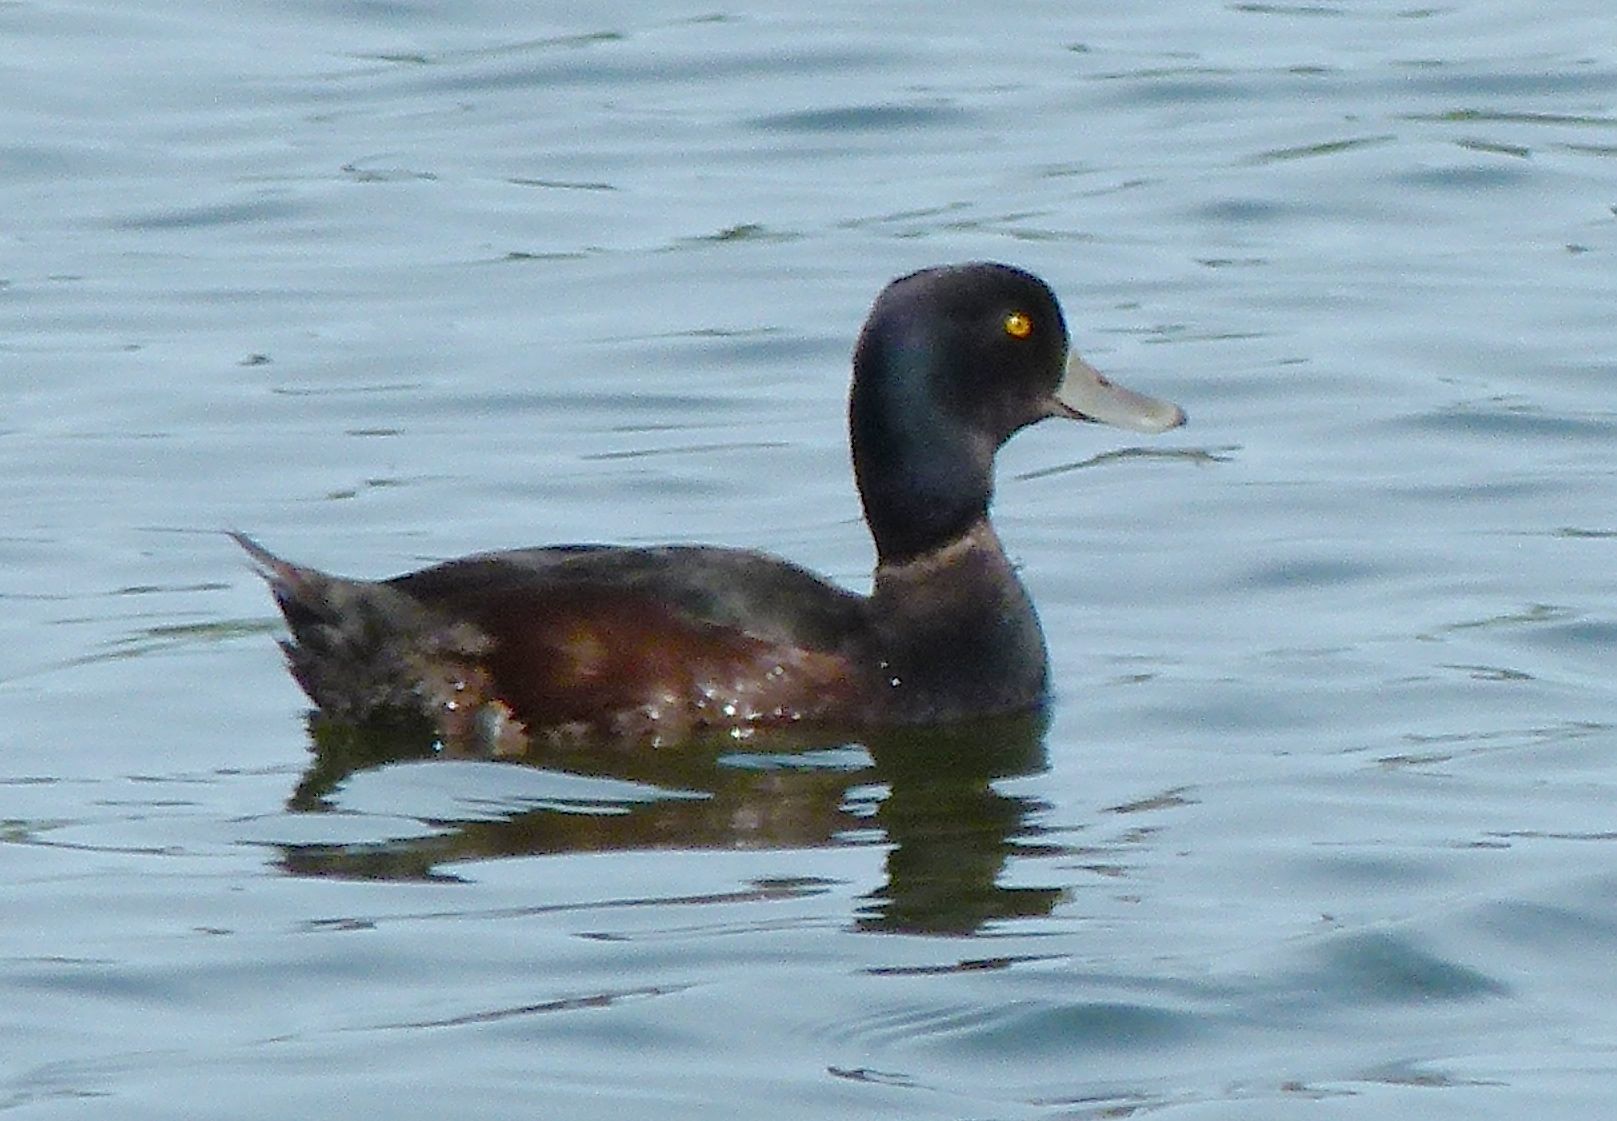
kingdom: Animalia
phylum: Chordata
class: Aves
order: Anseriformes
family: Anatidae
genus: Aythya
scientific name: Aythya novaeseelandiae
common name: New zealand scaup
